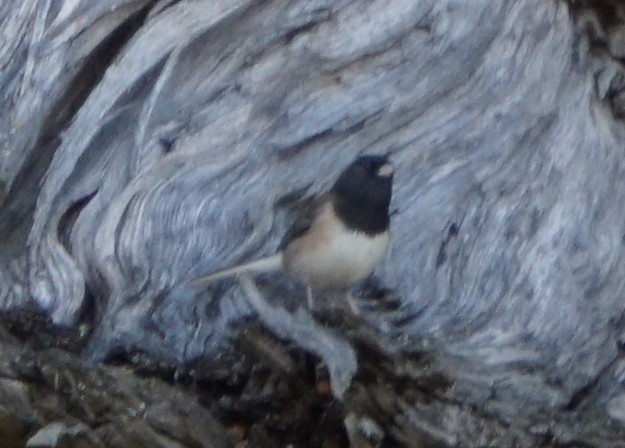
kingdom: Animalia
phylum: Chordata
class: Aves
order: Passeriformes
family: Passerellidae
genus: Junco
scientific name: Junco hyemalis
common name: Dark-eyed junco
